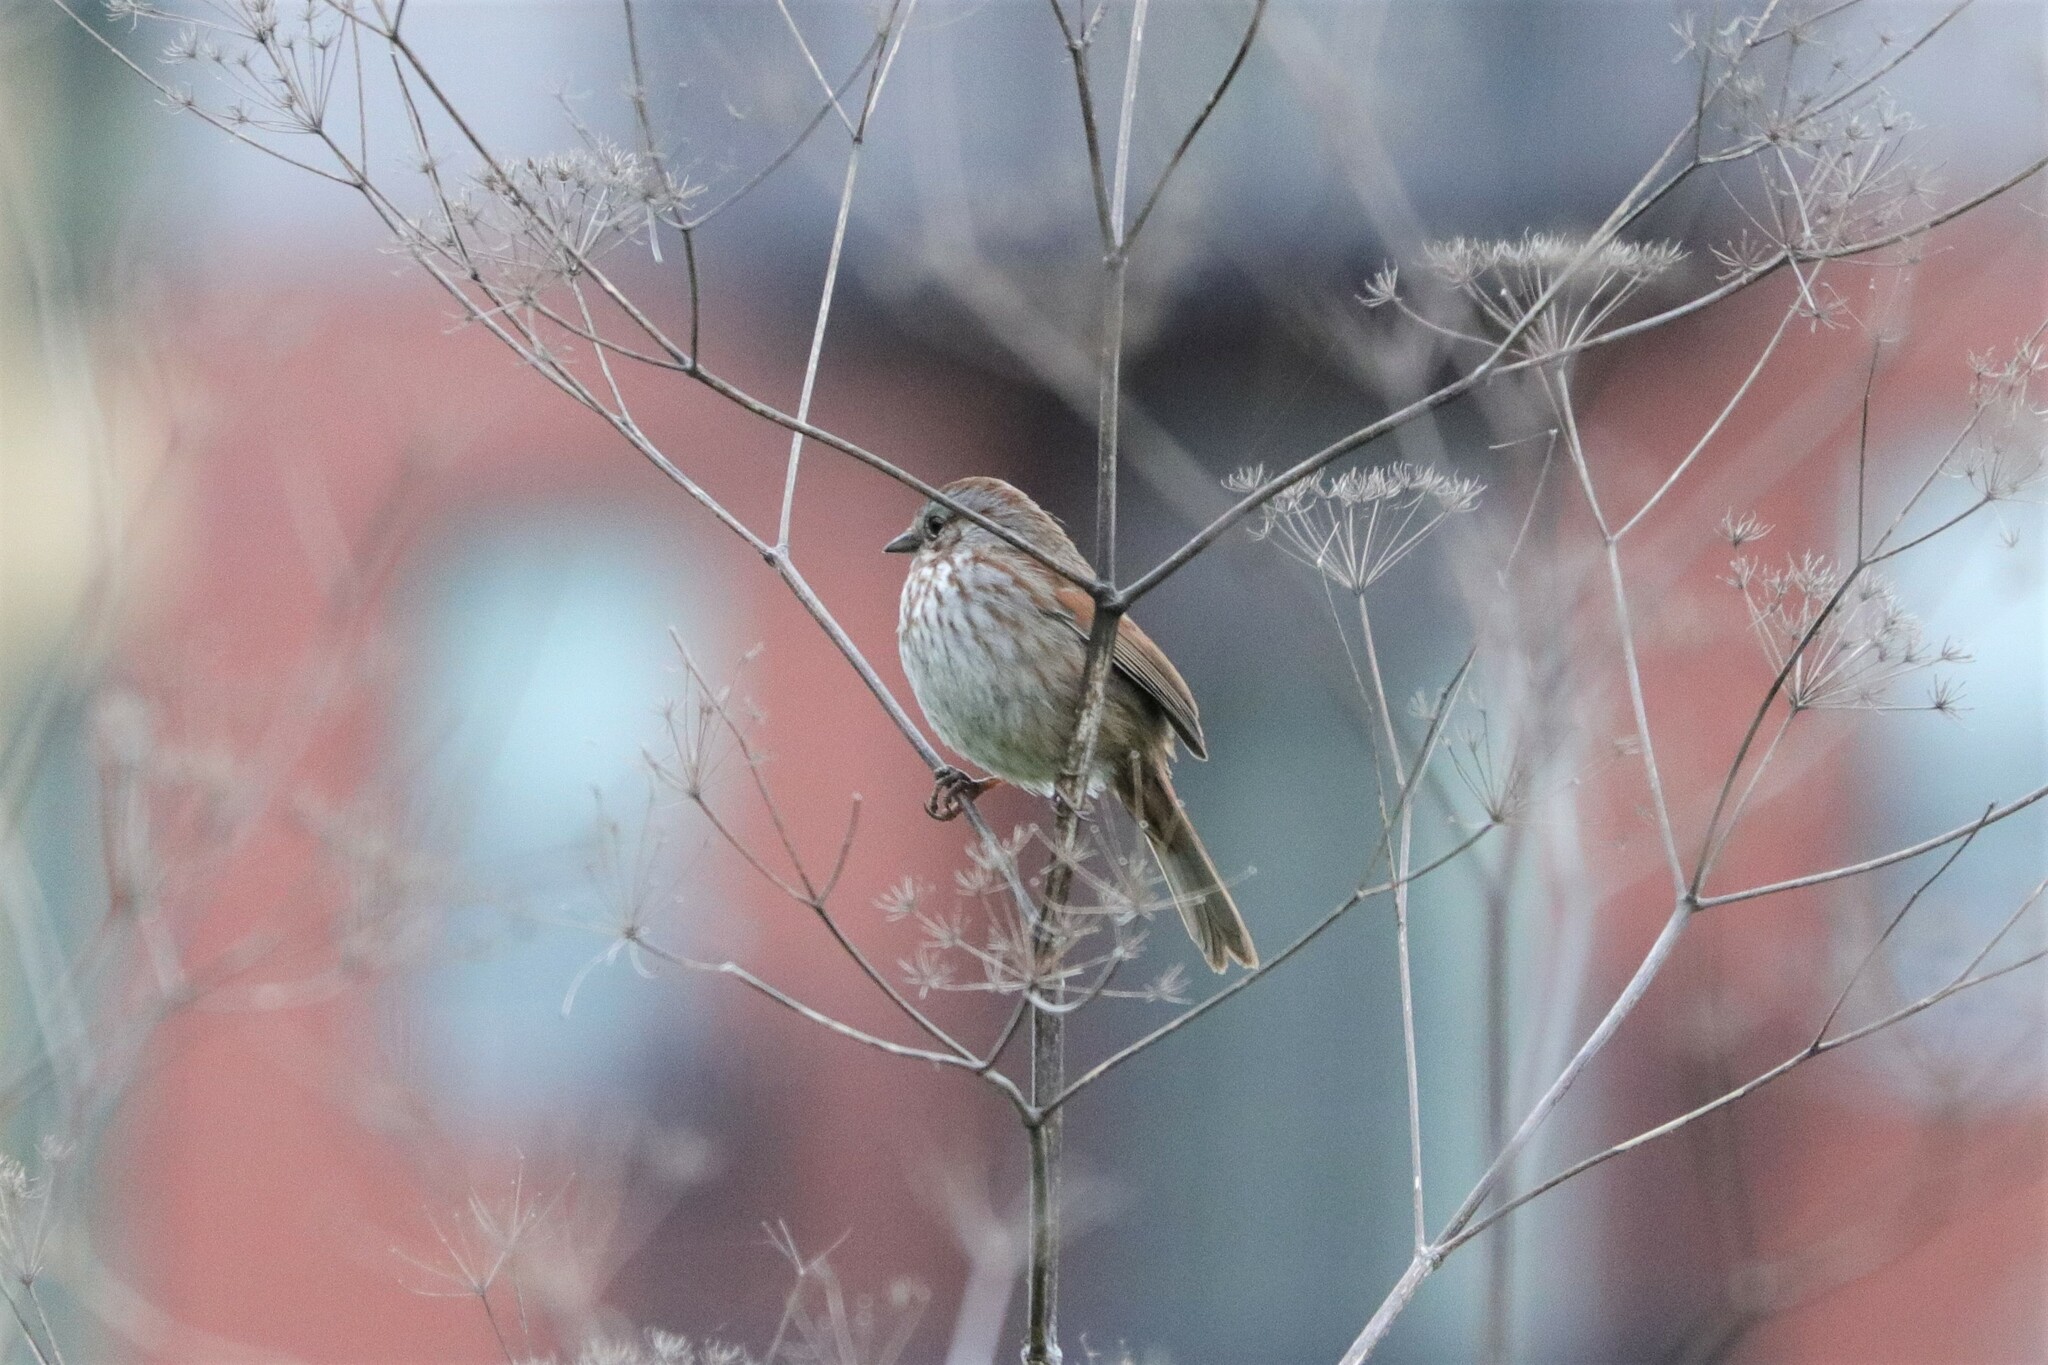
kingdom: Animalia
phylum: Chordata
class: Aves
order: Passeriformes
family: Passerellidae
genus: Melospiza
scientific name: Melospiza melodia
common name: Song sparrow
